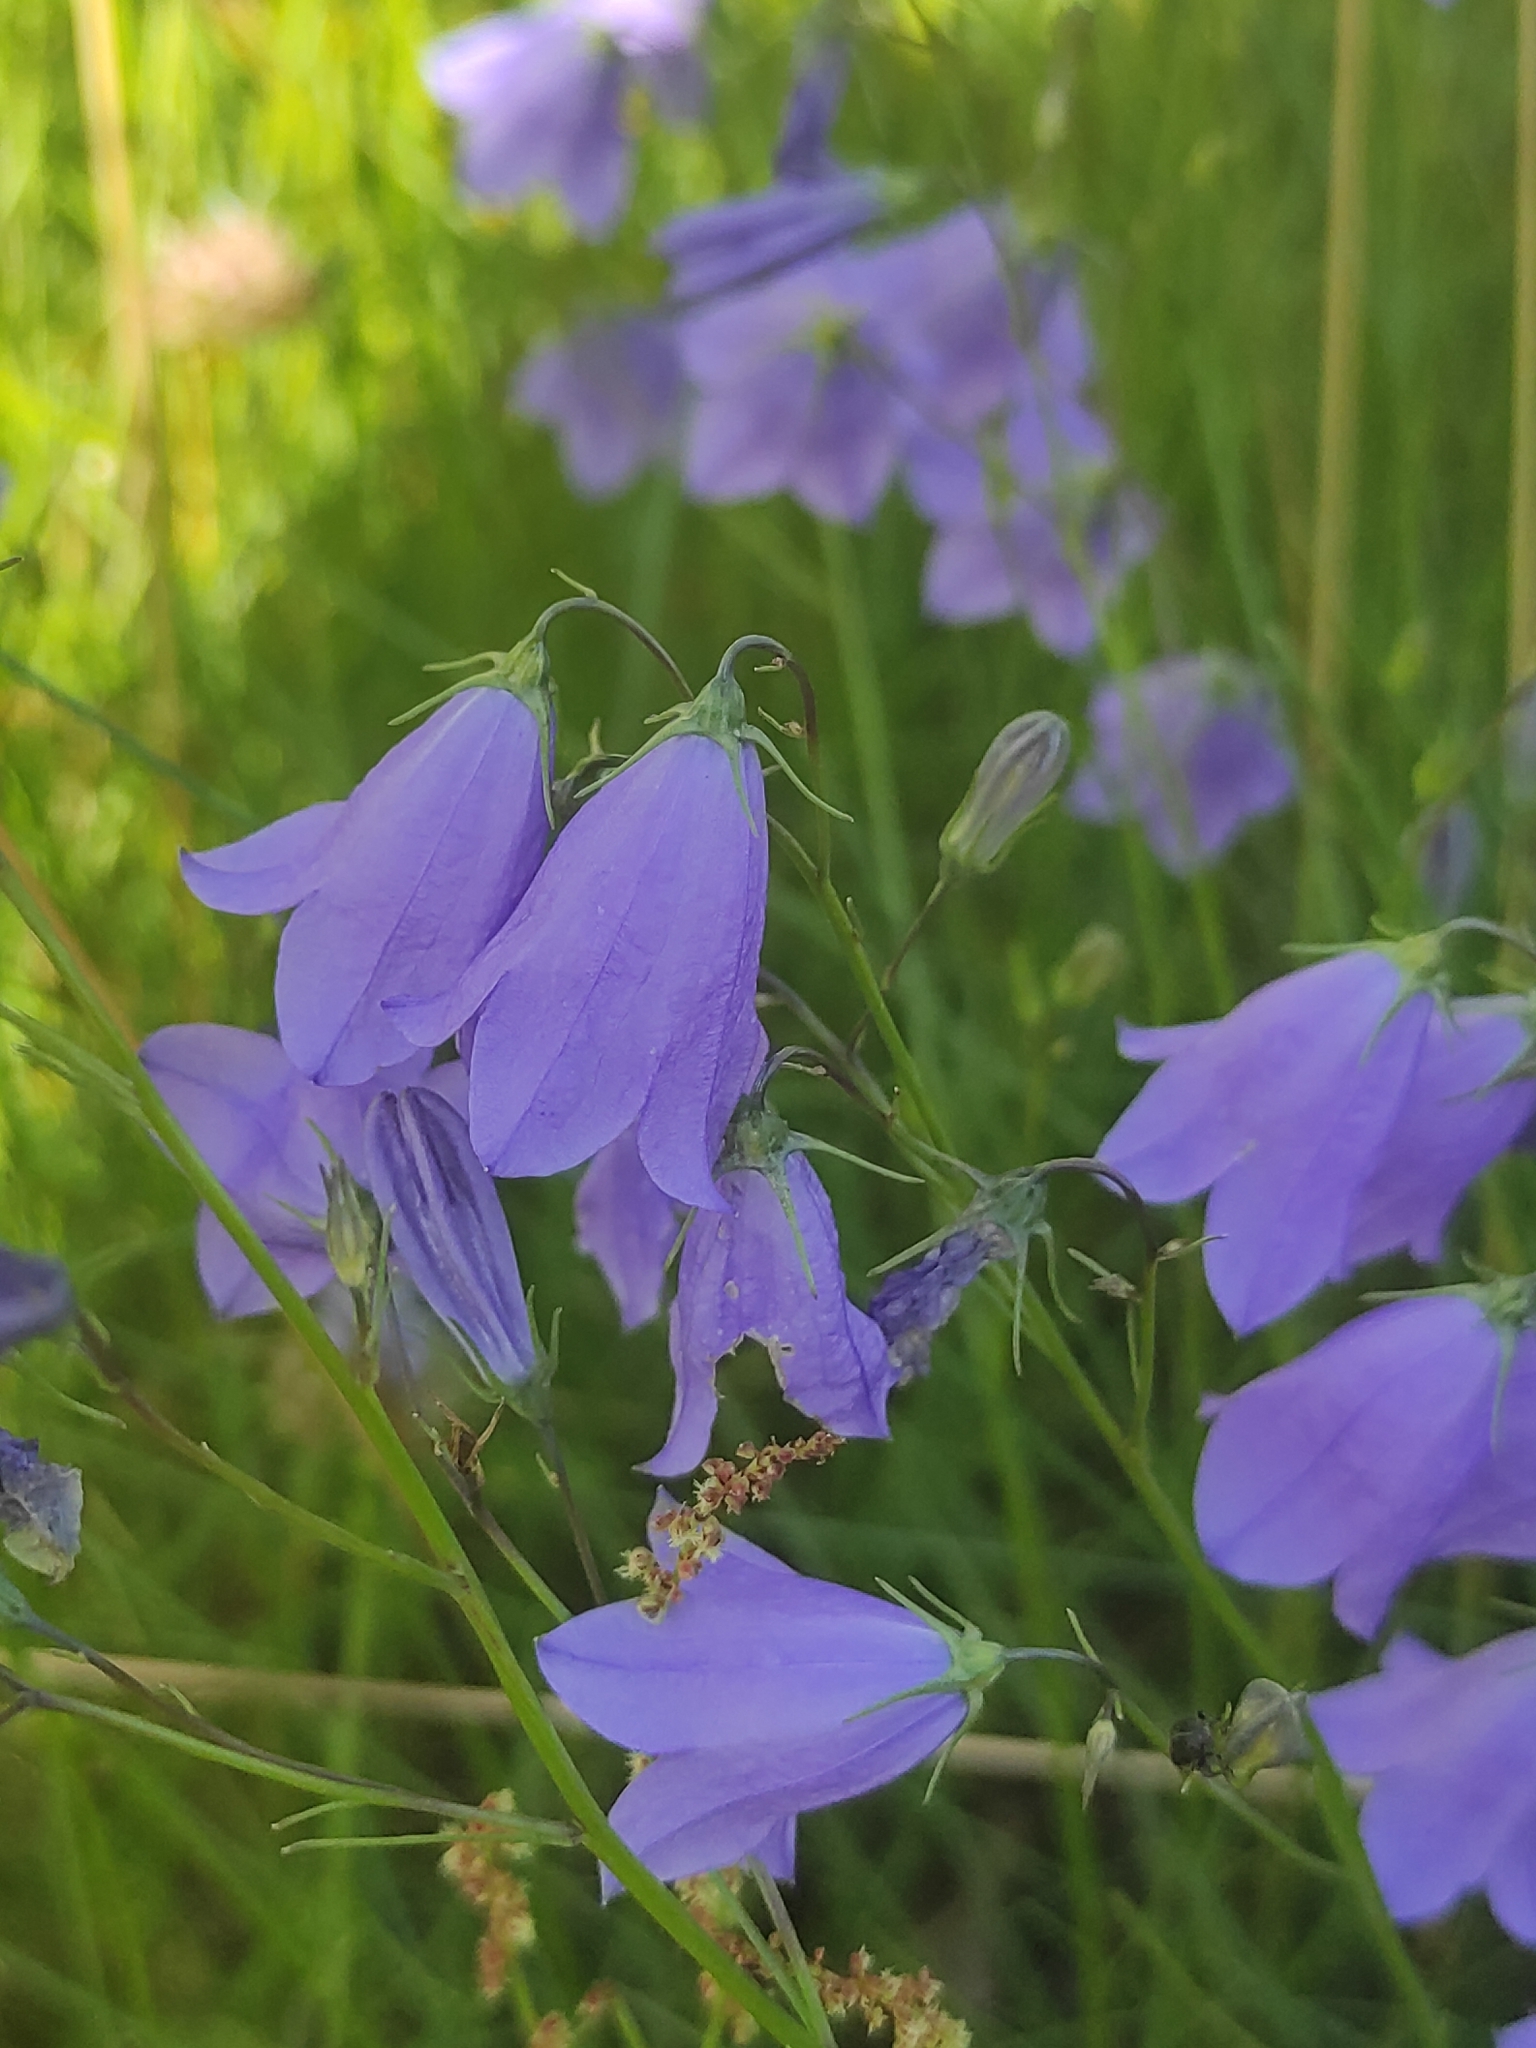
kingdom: Plantae
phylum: Tracheophyta
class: Magnoliopsida
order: Asterales
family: Campanulaceae
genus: Campanula
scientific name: Campanula rotundifolia
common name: Harebell
